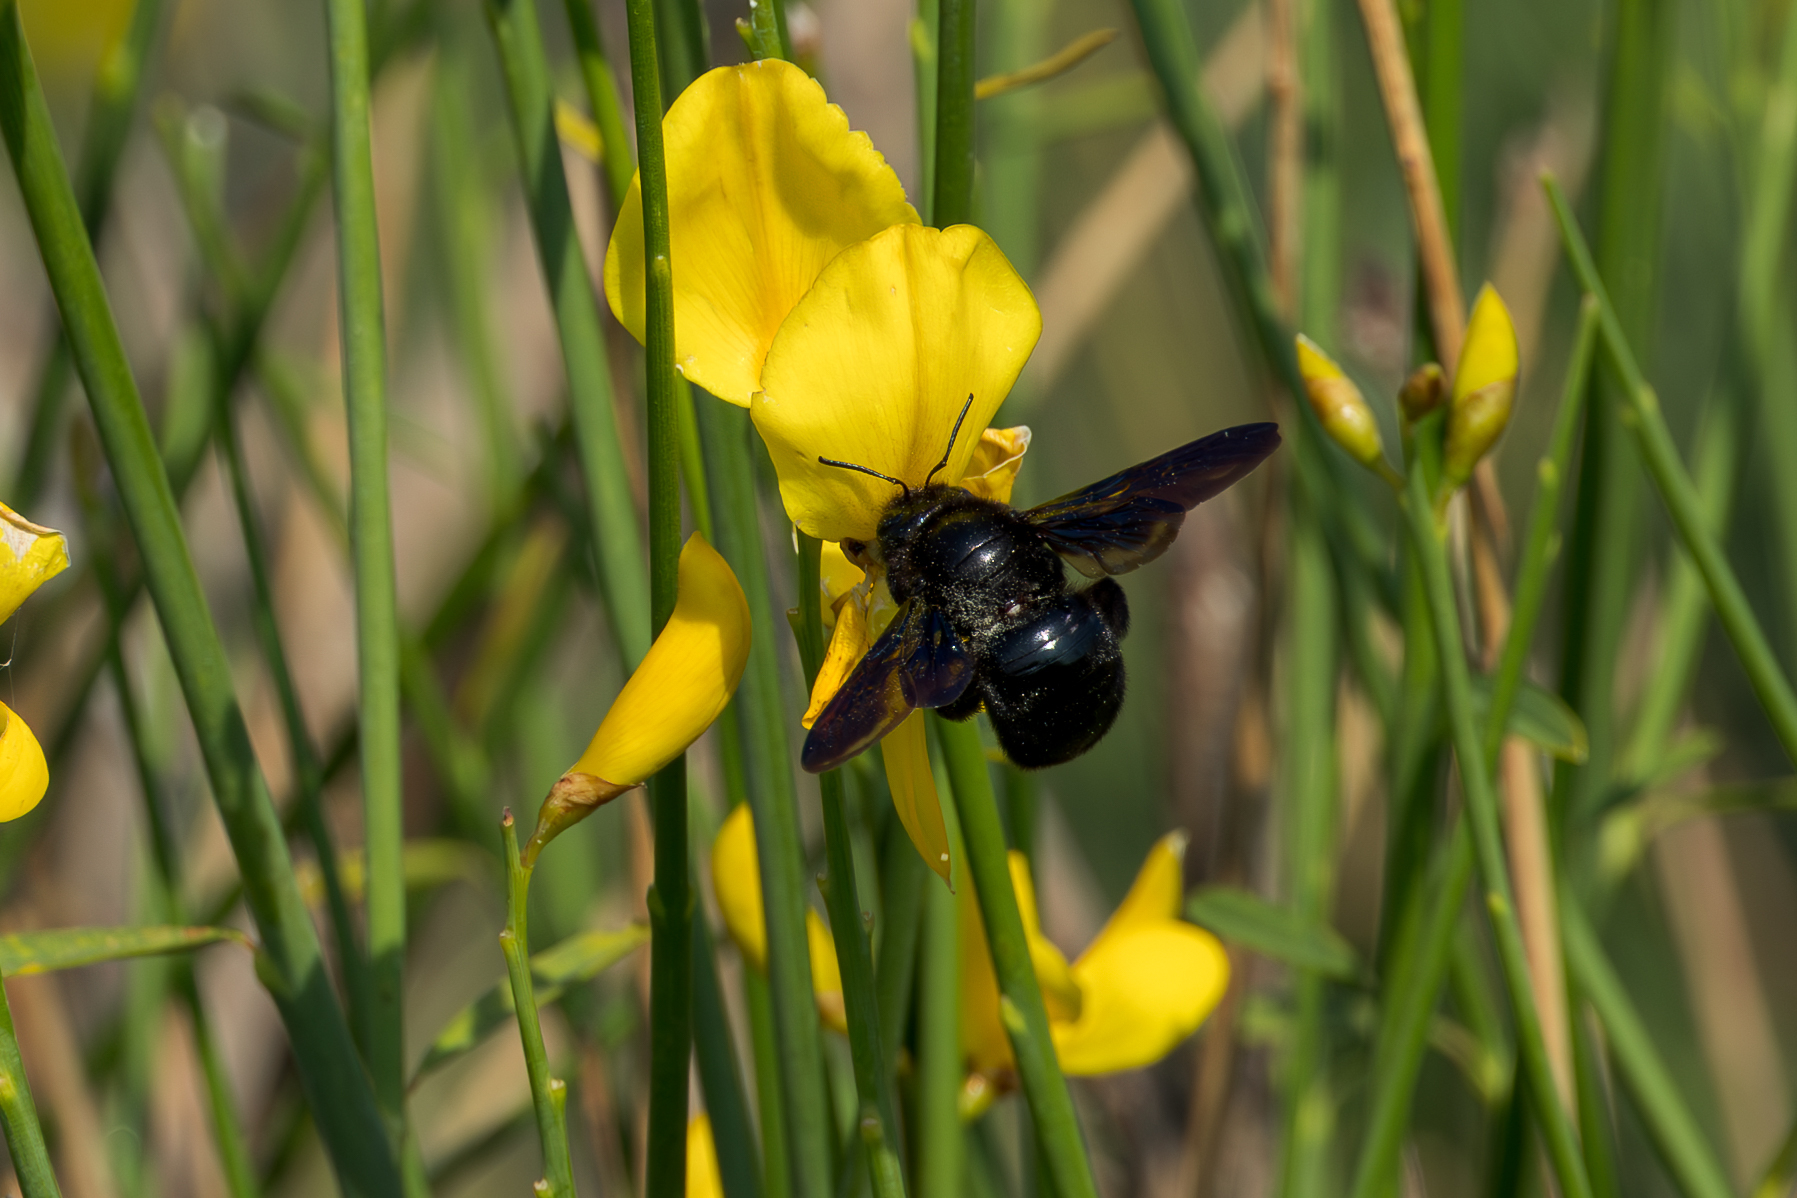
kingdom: Animalia
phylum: Arthropoda
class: Insecta
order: Hymenoptera
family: Apidae
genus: Xylocopa
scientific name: Xylocopa violacea
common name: Violet carpenter bee
